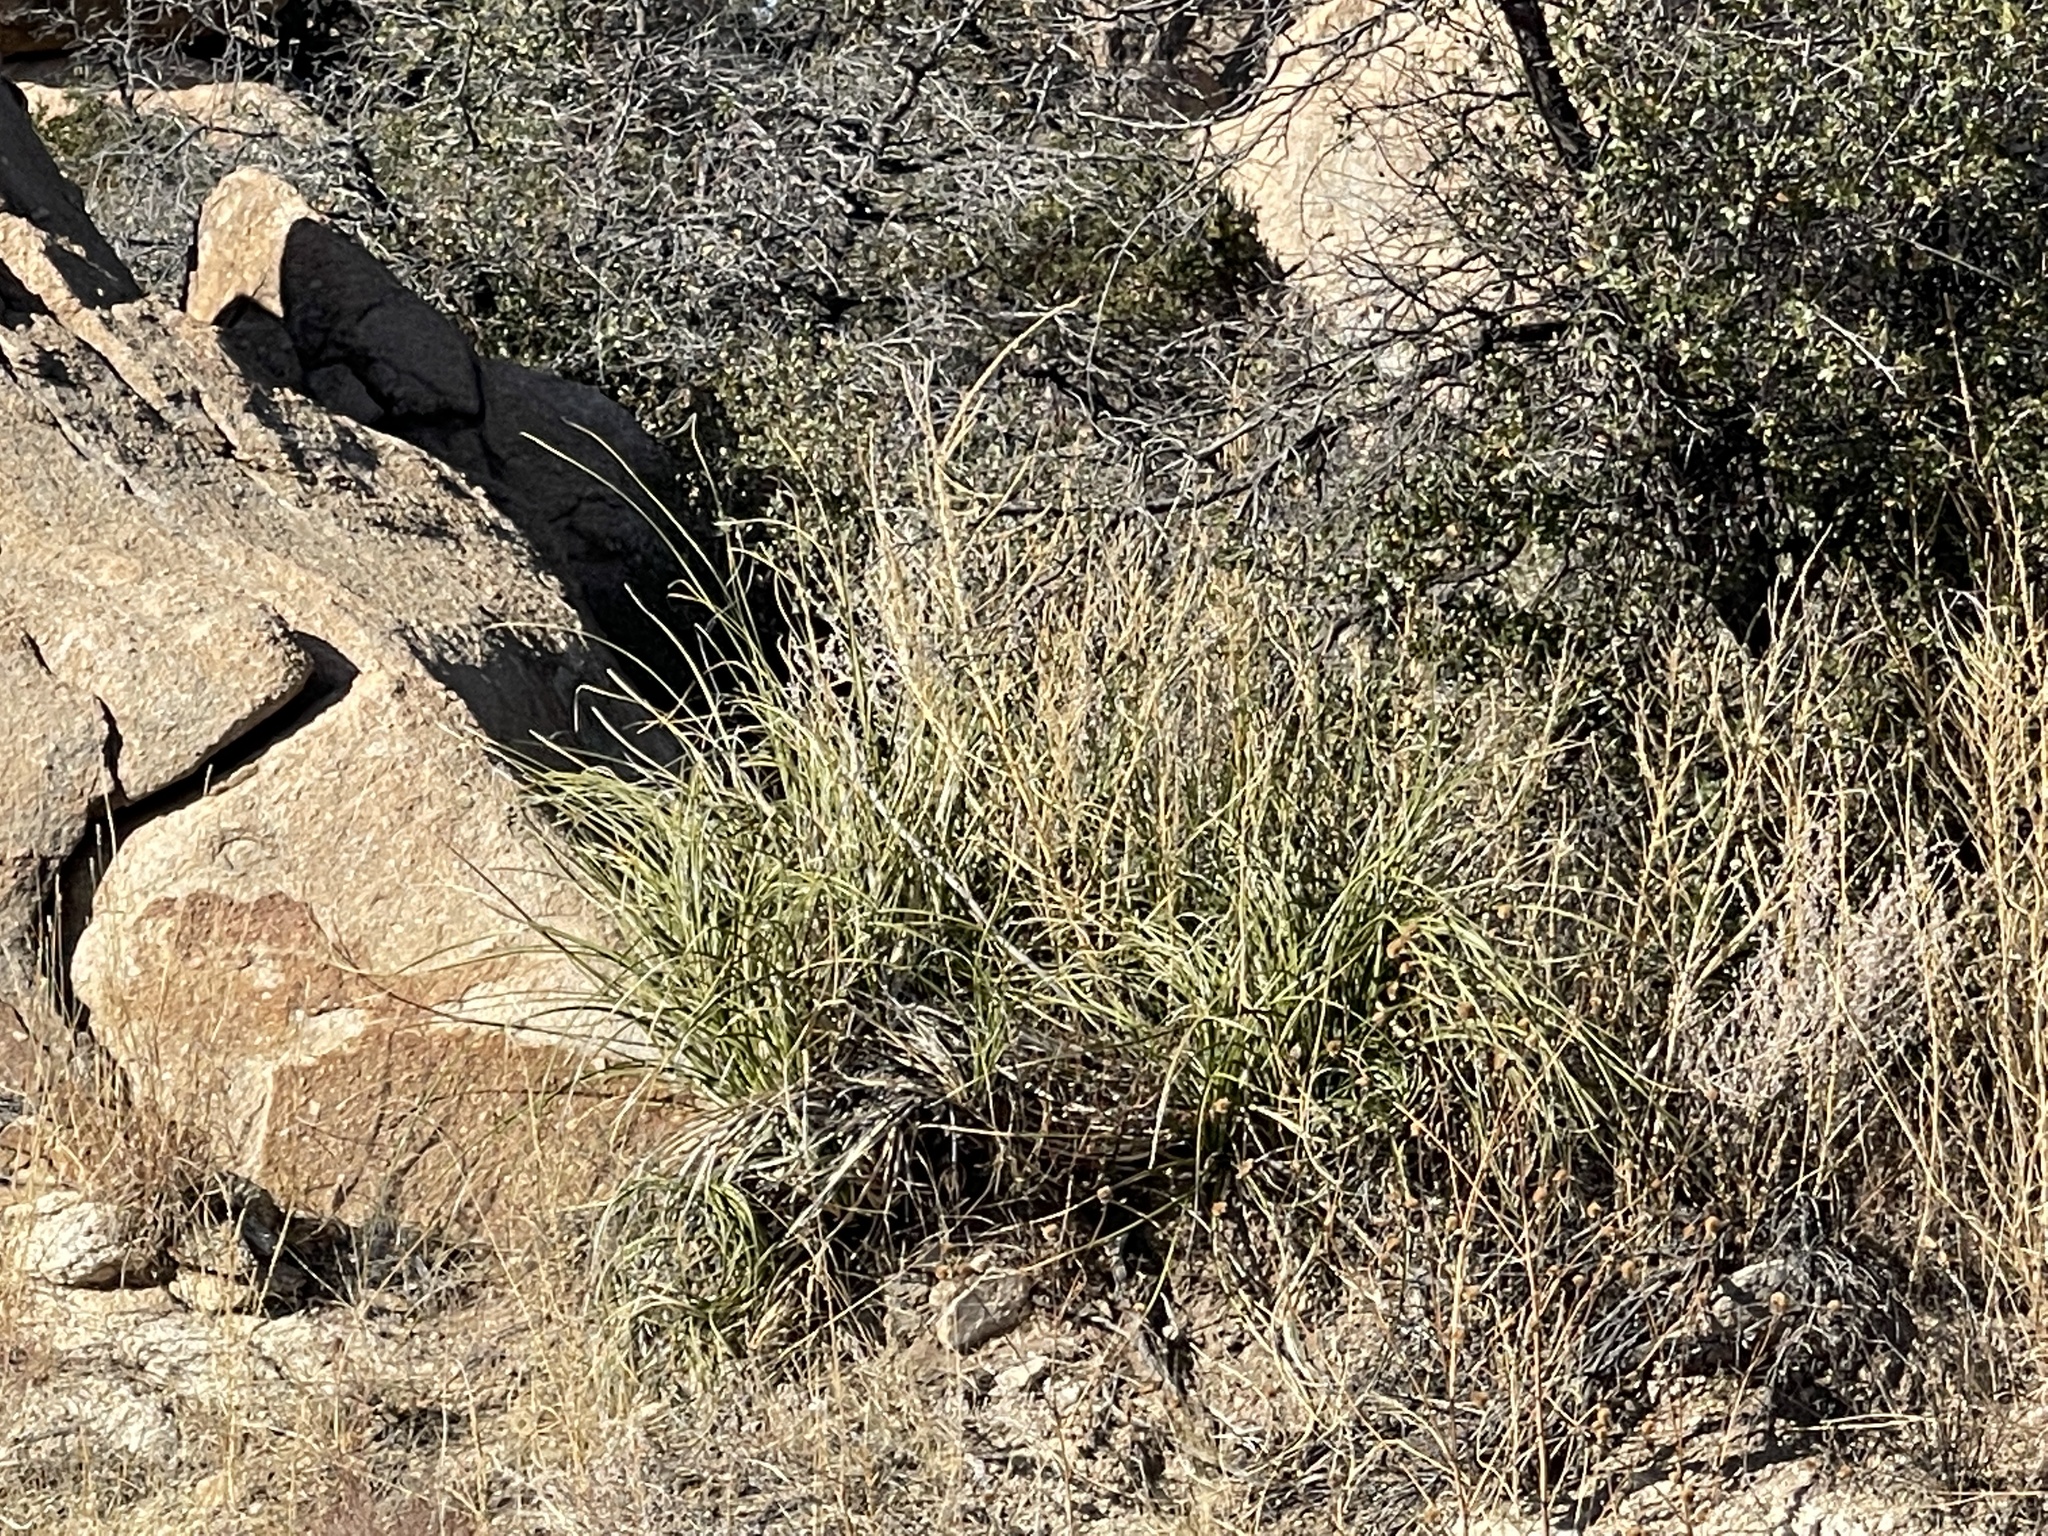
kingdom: Plantae
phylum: Tracheophyta
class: Liliopsida
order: Asparagales
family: Asparagaceae
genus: Nolina
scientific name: Nolina microcarpa
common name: Bear-grass
